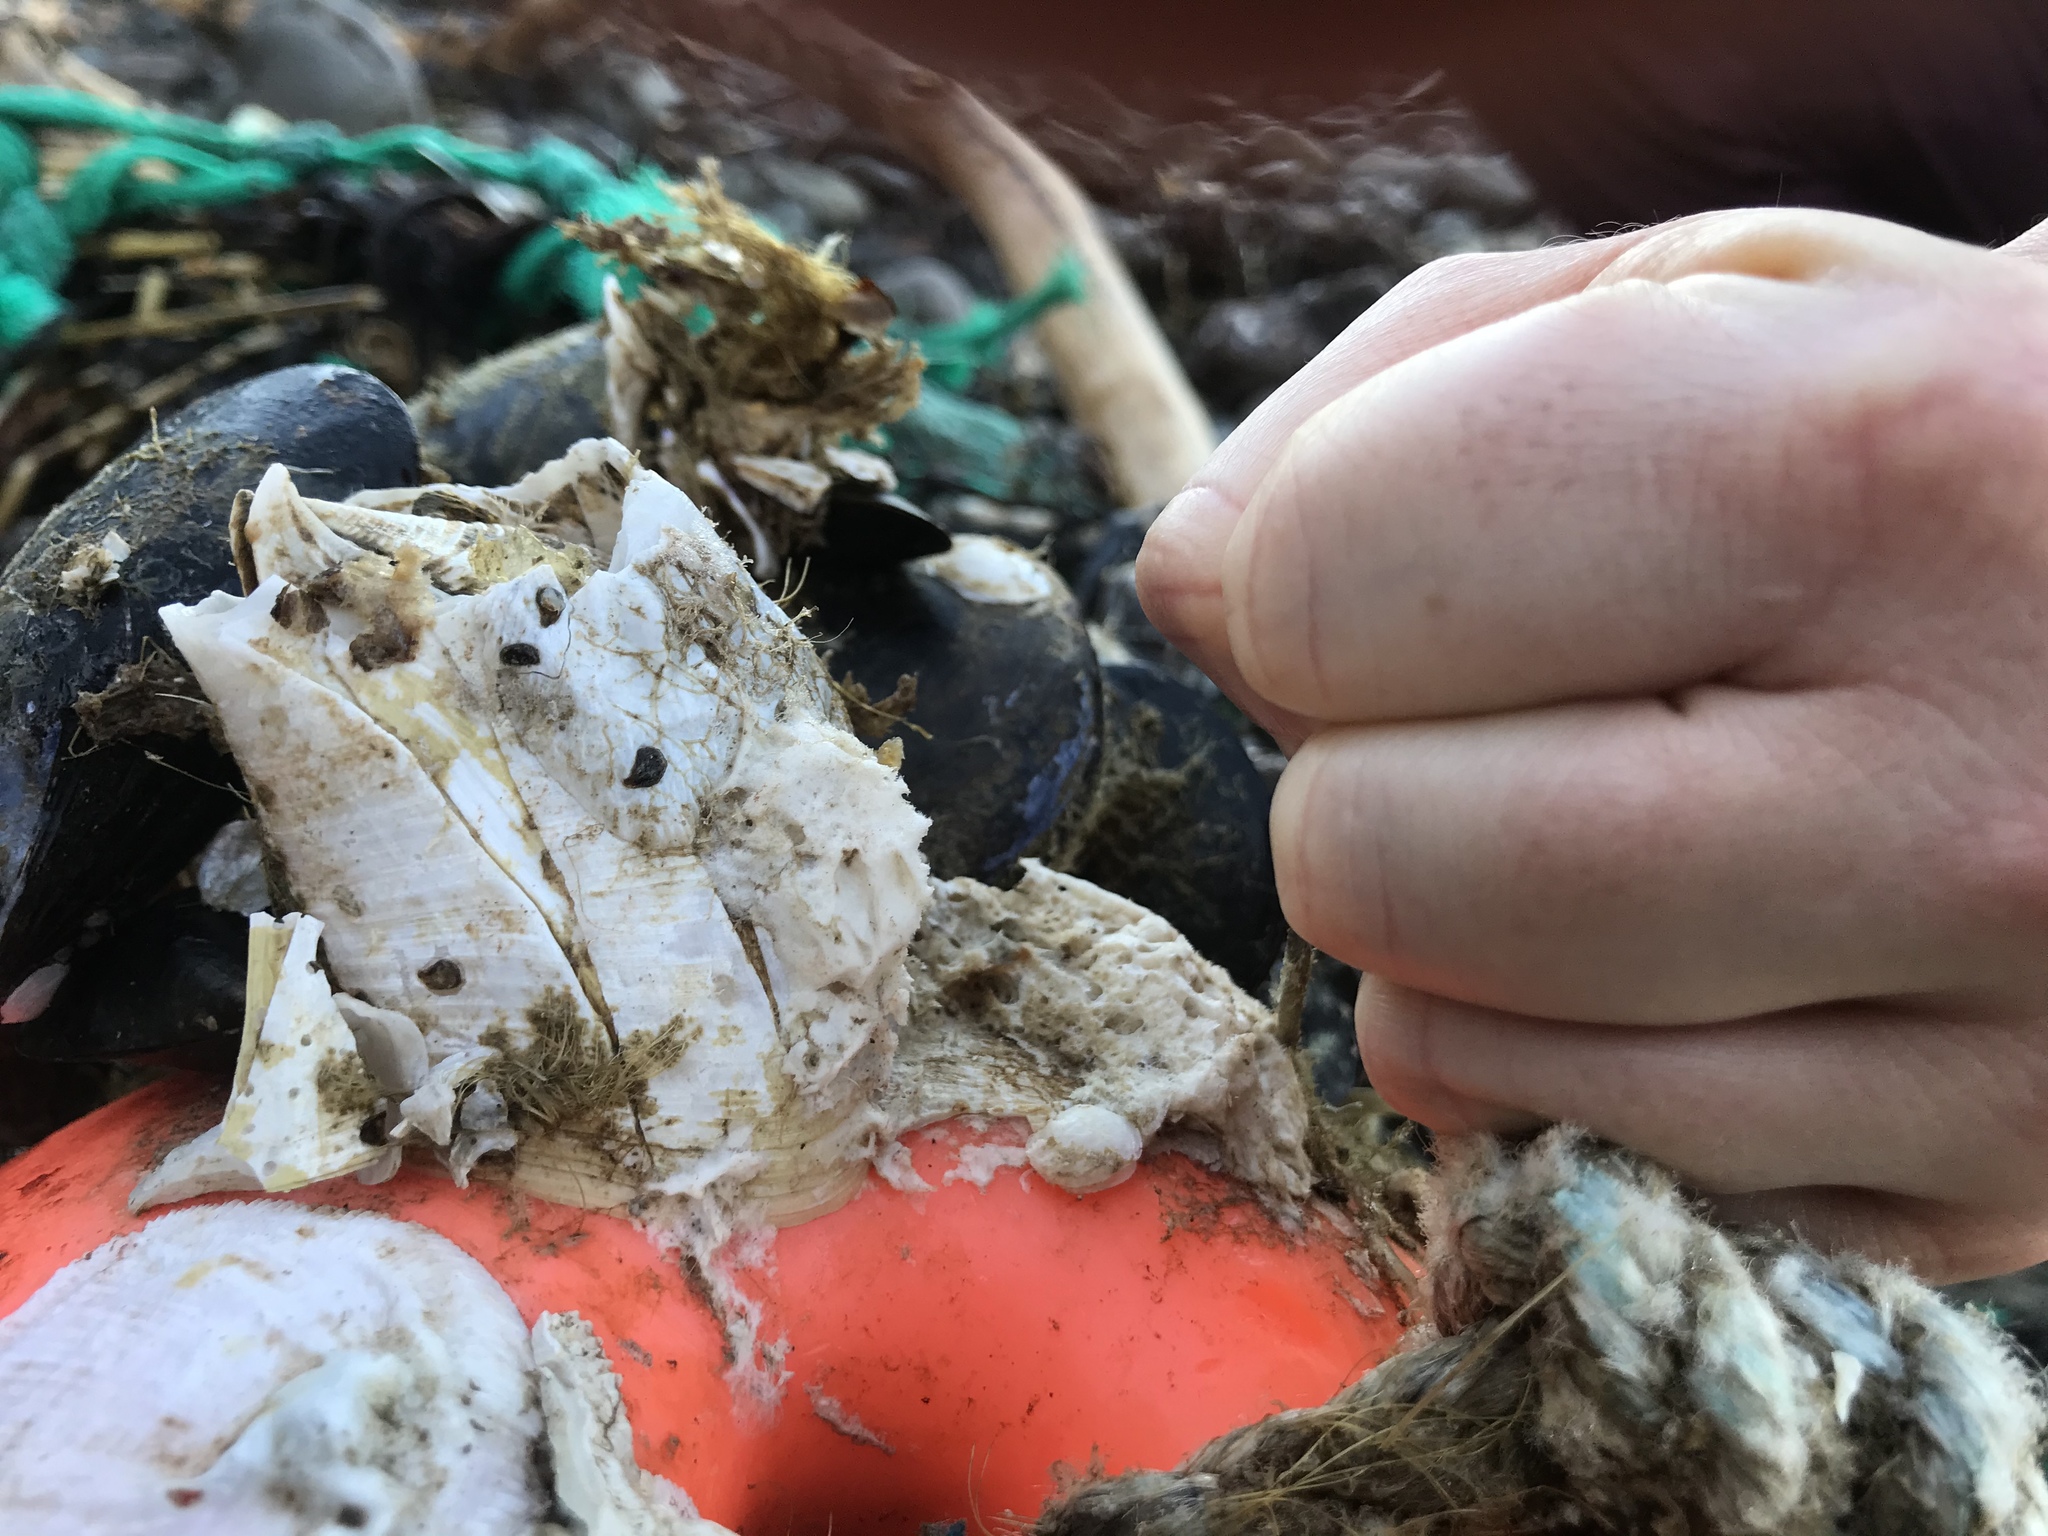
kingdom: Animalia
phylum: Arthropoda
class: Maxillopoda
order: Sessilia
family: Archaeobalanidae
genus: Chirona
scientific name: Chirona hameri
